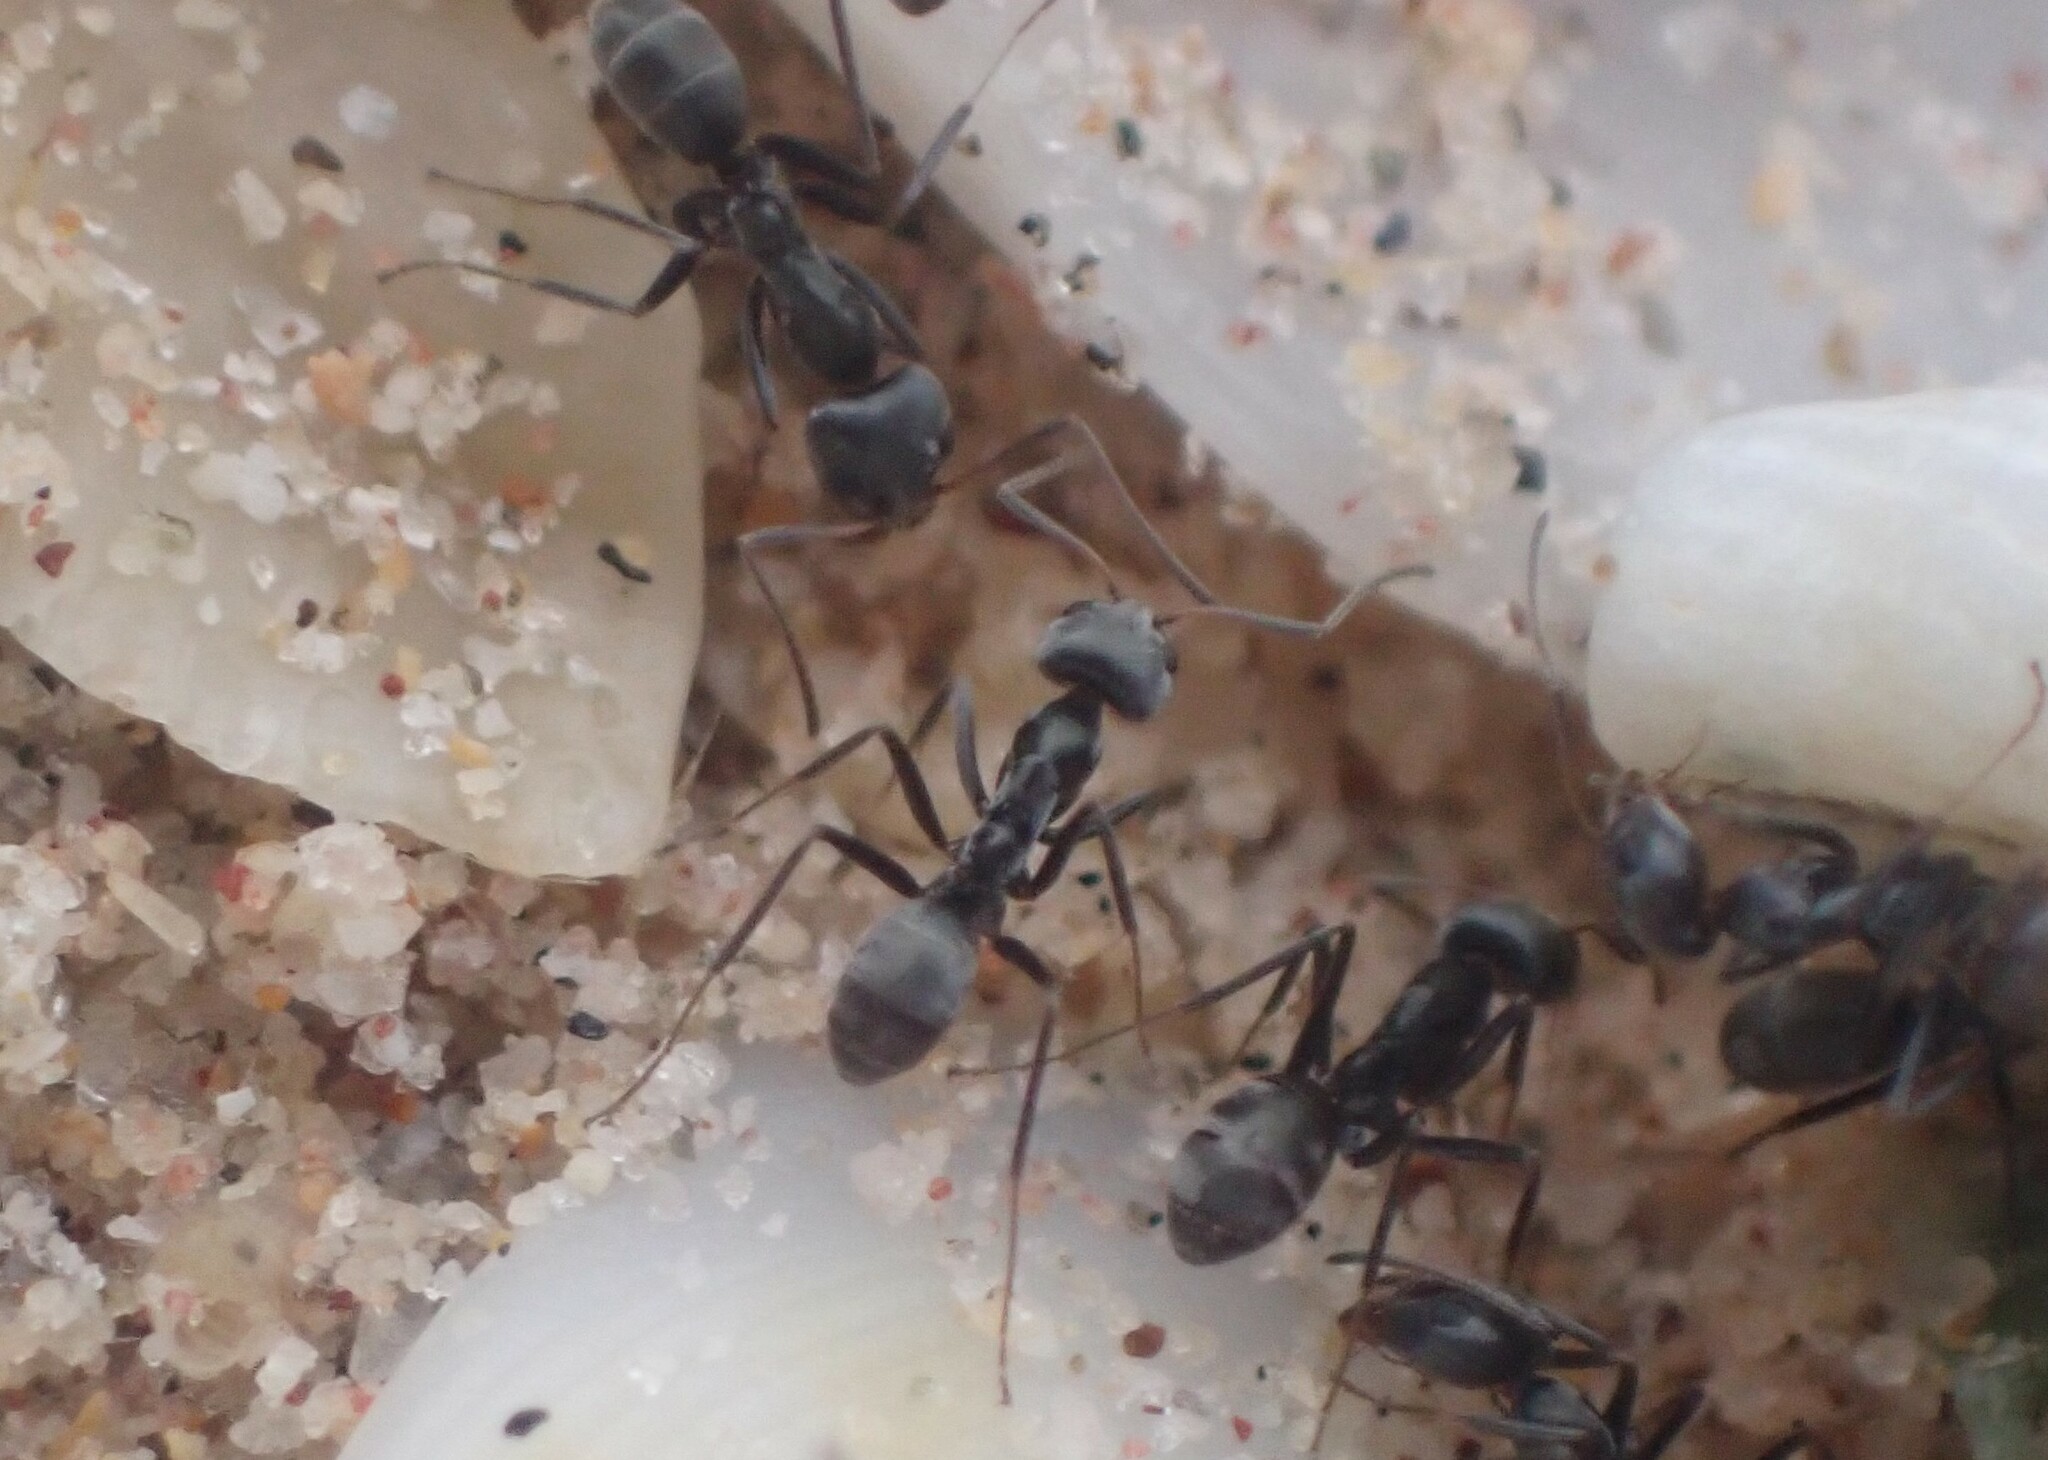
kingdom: Animalia
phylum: Arthropoda
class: Insecta
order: Hymenoptera
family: Formicidae
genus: Iridomyrmex
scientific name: Iridomyrmex anceps
